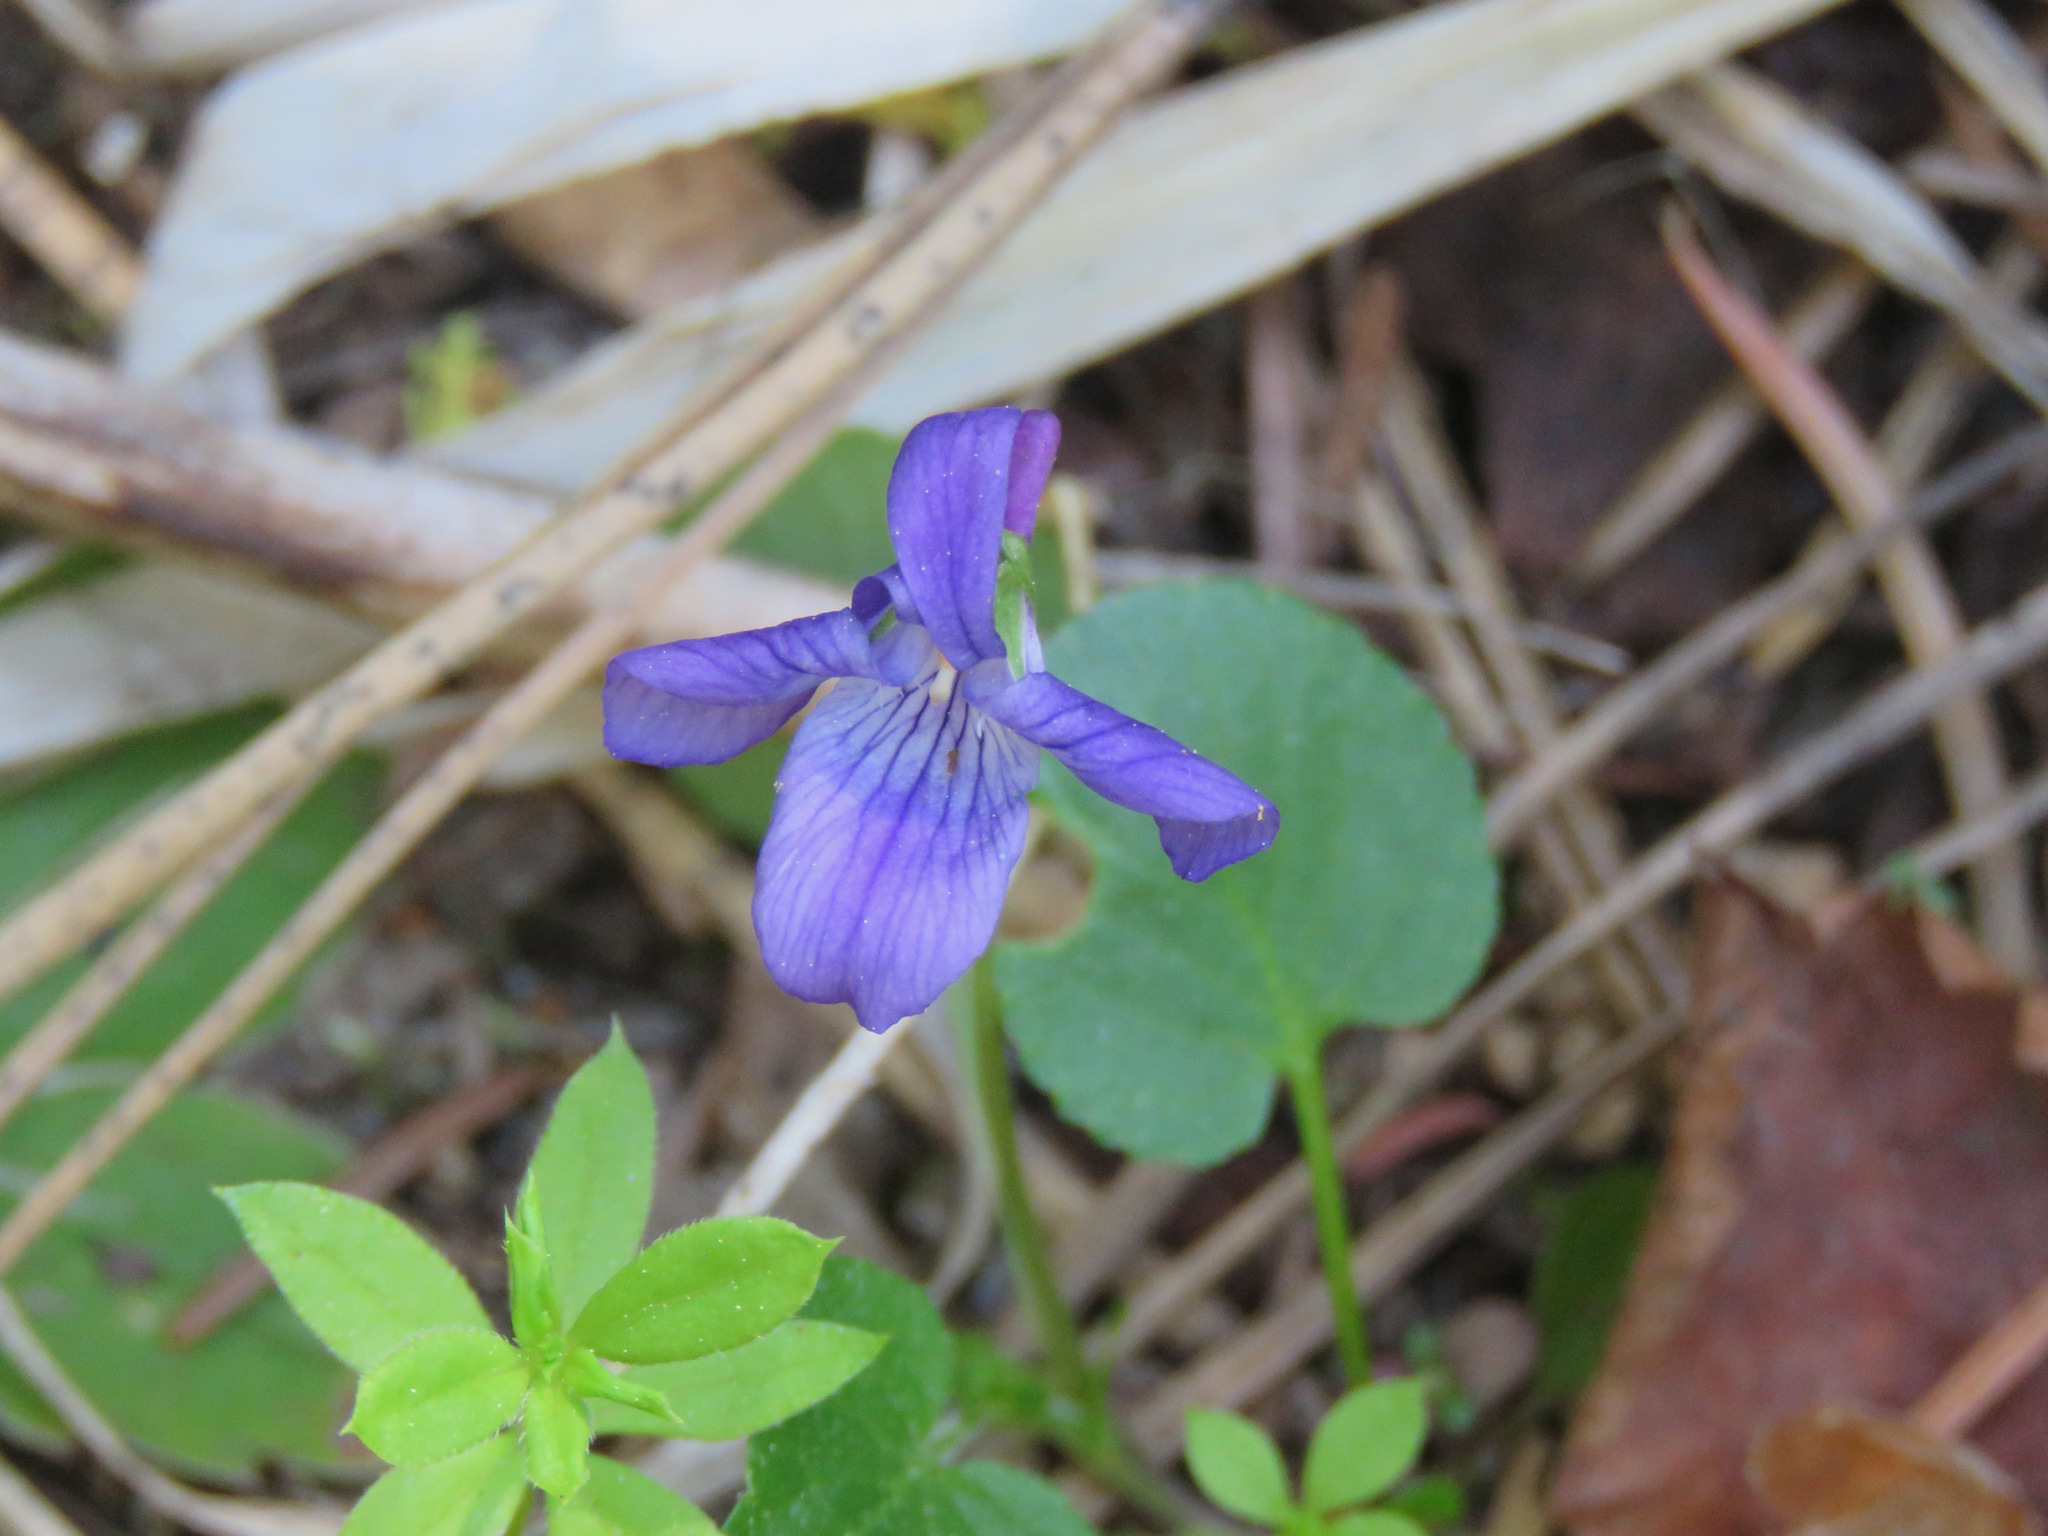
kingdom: Plantae
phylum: Tracheophyta
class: Magnoliopsida
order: Malpighiales
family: Violaceae
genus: Viola
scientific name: Viola adunca
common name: Sand violet
